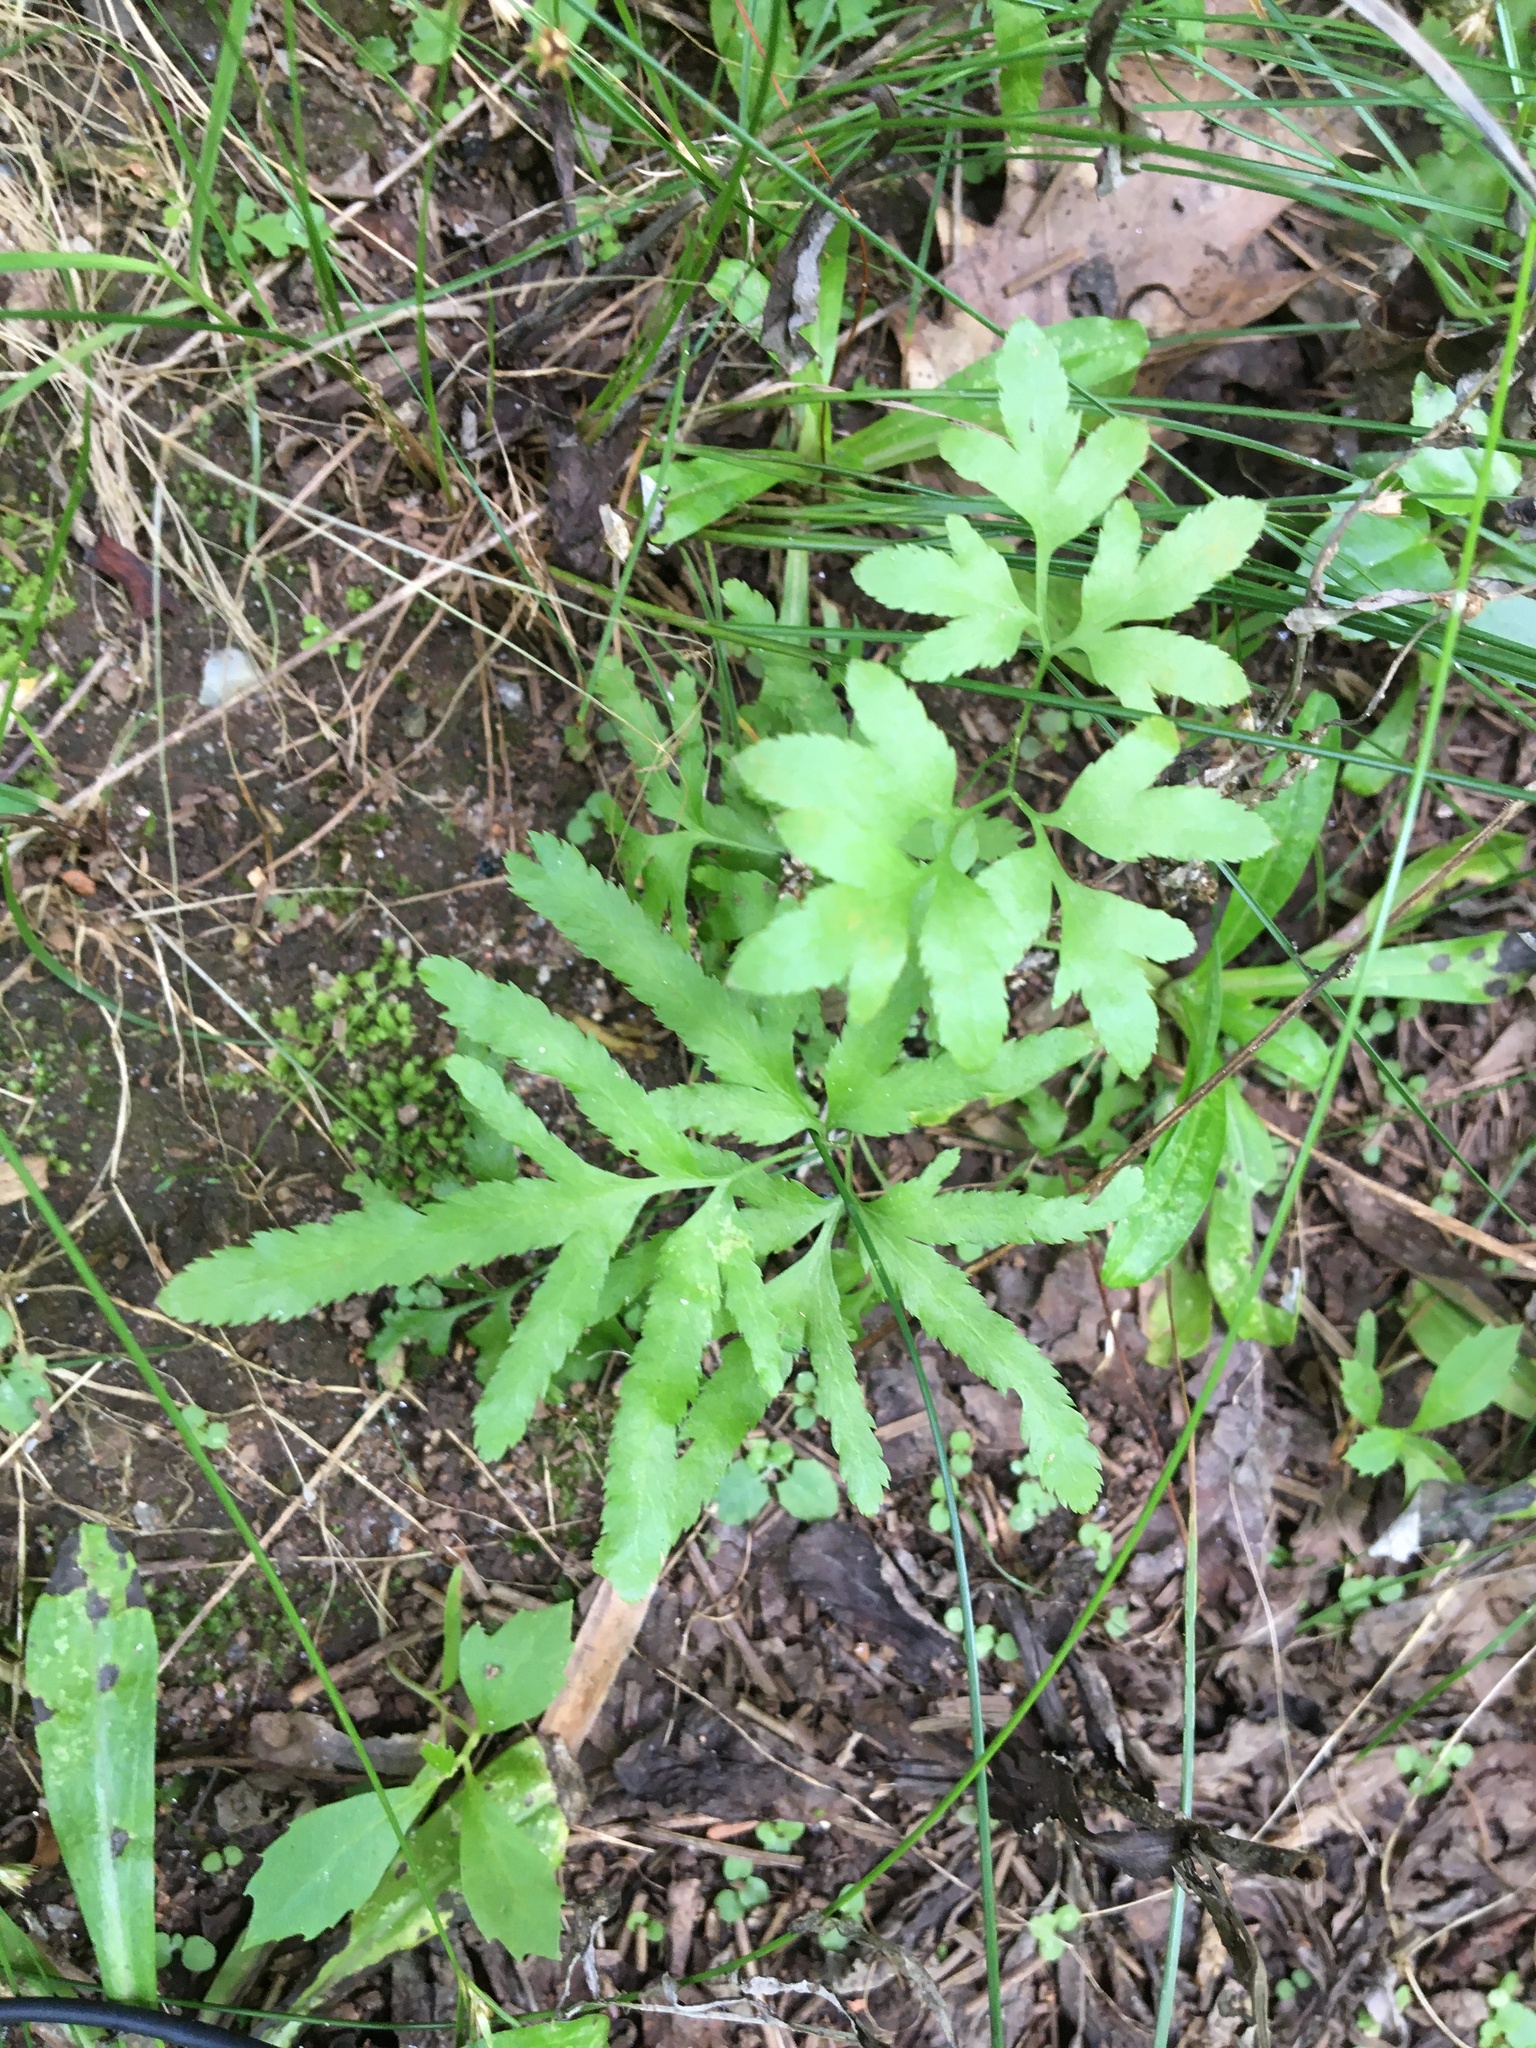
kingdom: Plantae
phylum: Tracheophyta
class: Polypodiopsida
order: Schizaeales
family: Lygodiaceae
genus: Lygodium
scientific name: Lygodium japonicum
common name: Japanese climbing fern
